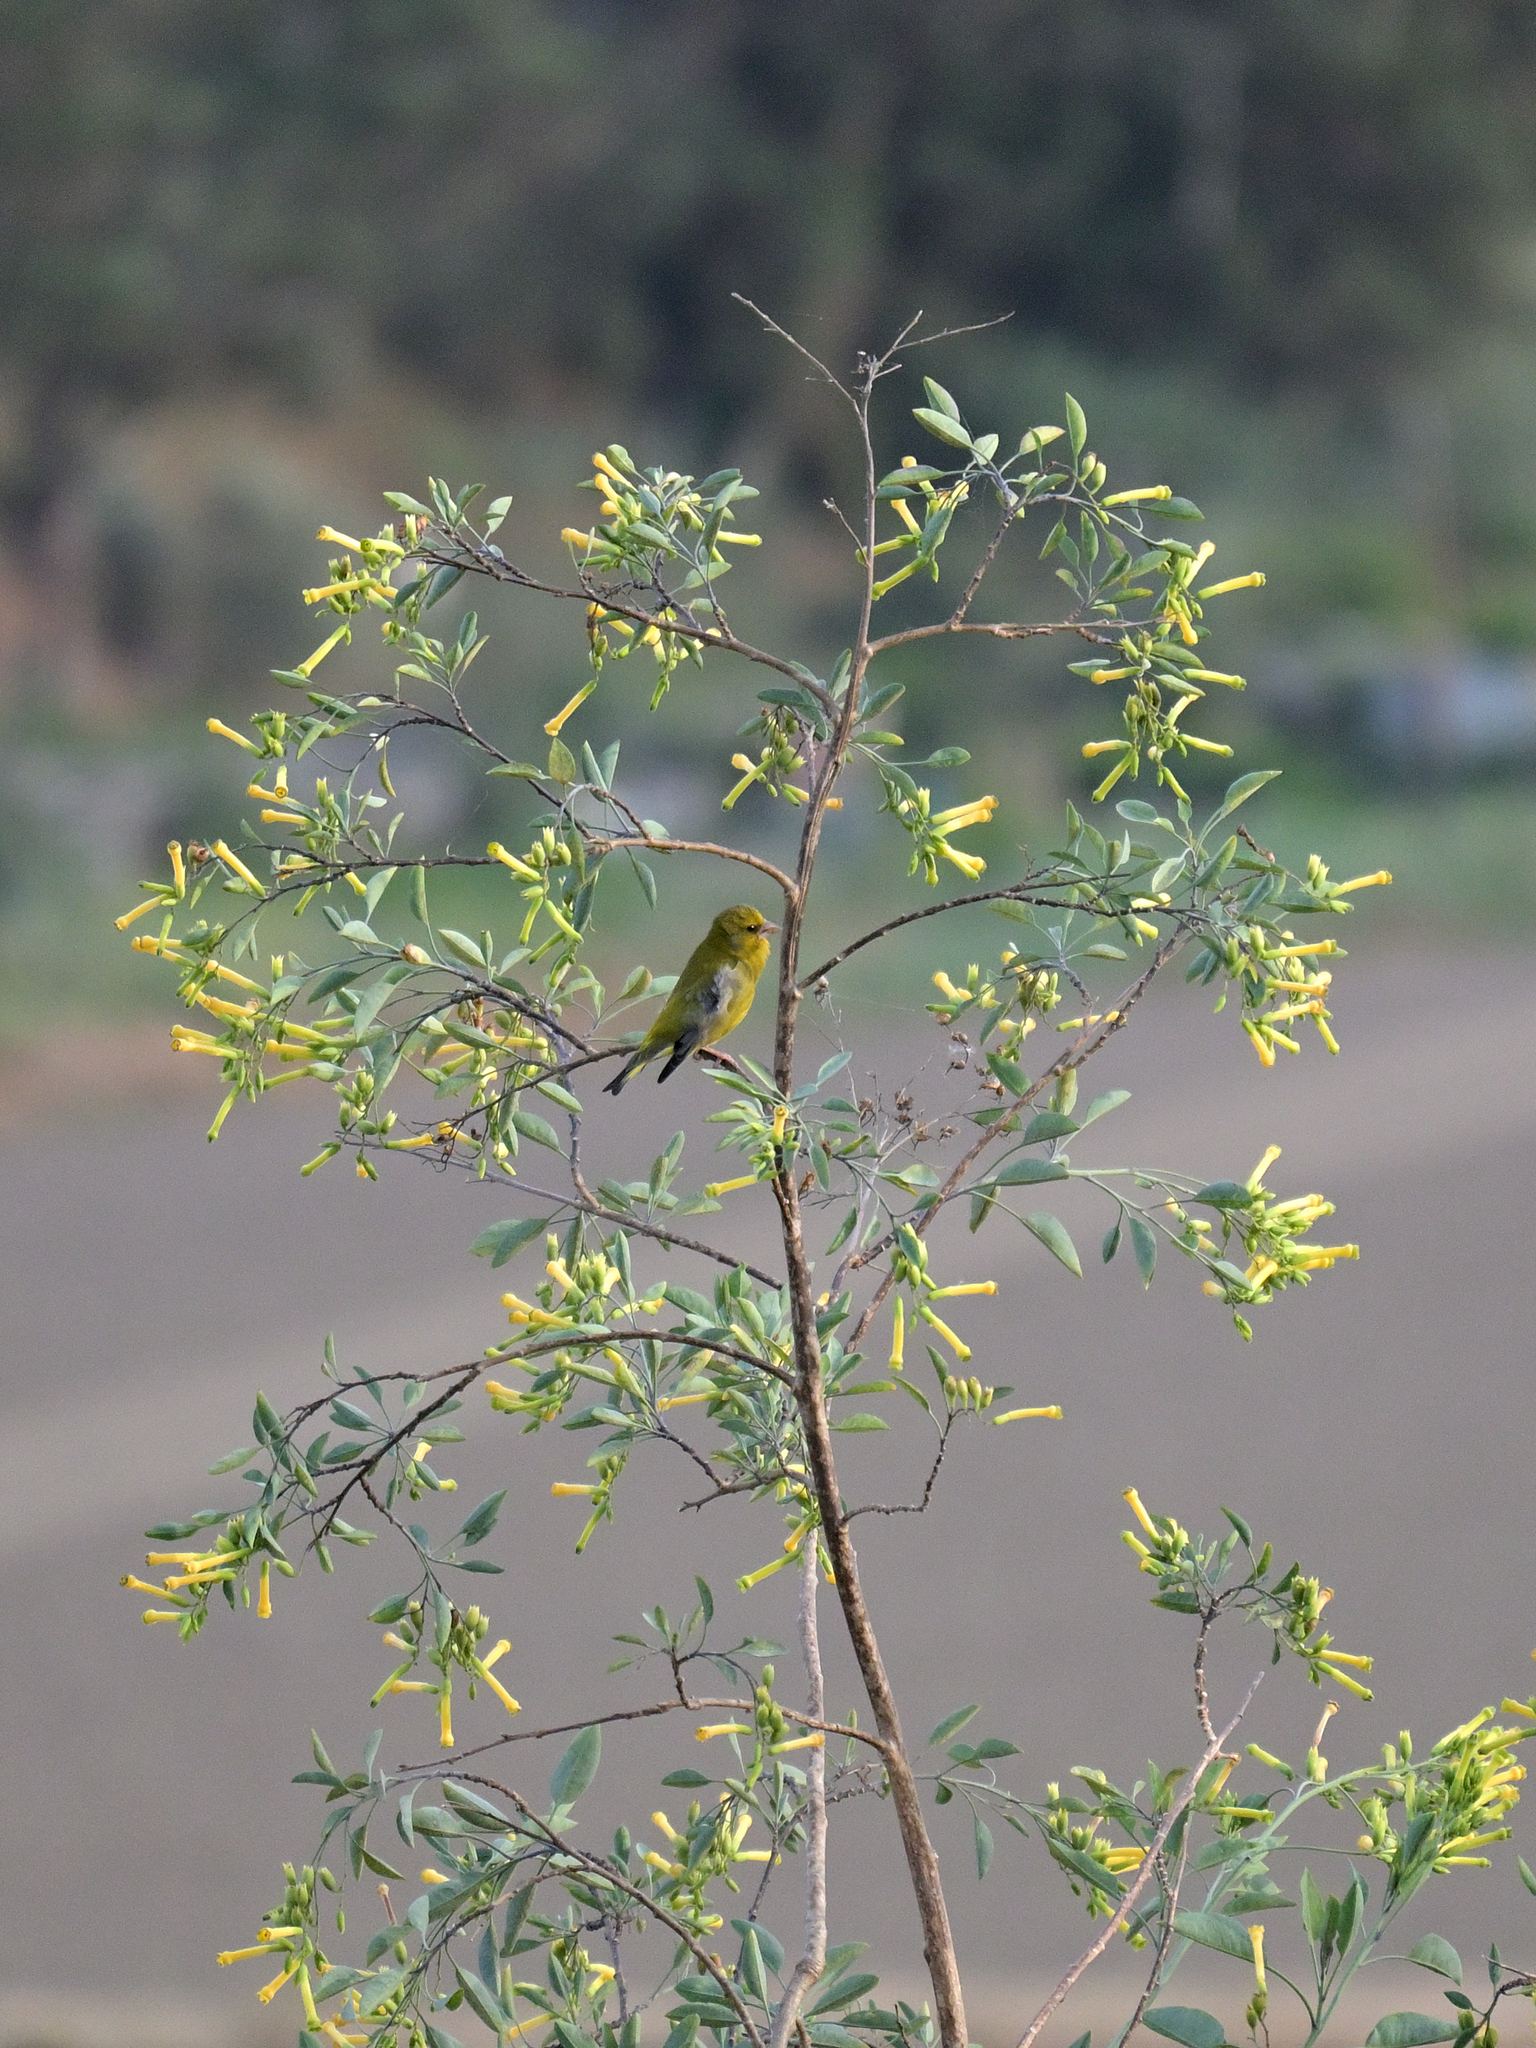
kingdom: Plantae
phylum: Tracheophyta
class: Liliopsida
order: Poales
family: Poaceae
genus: Chloris
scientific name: Chloris chloris
